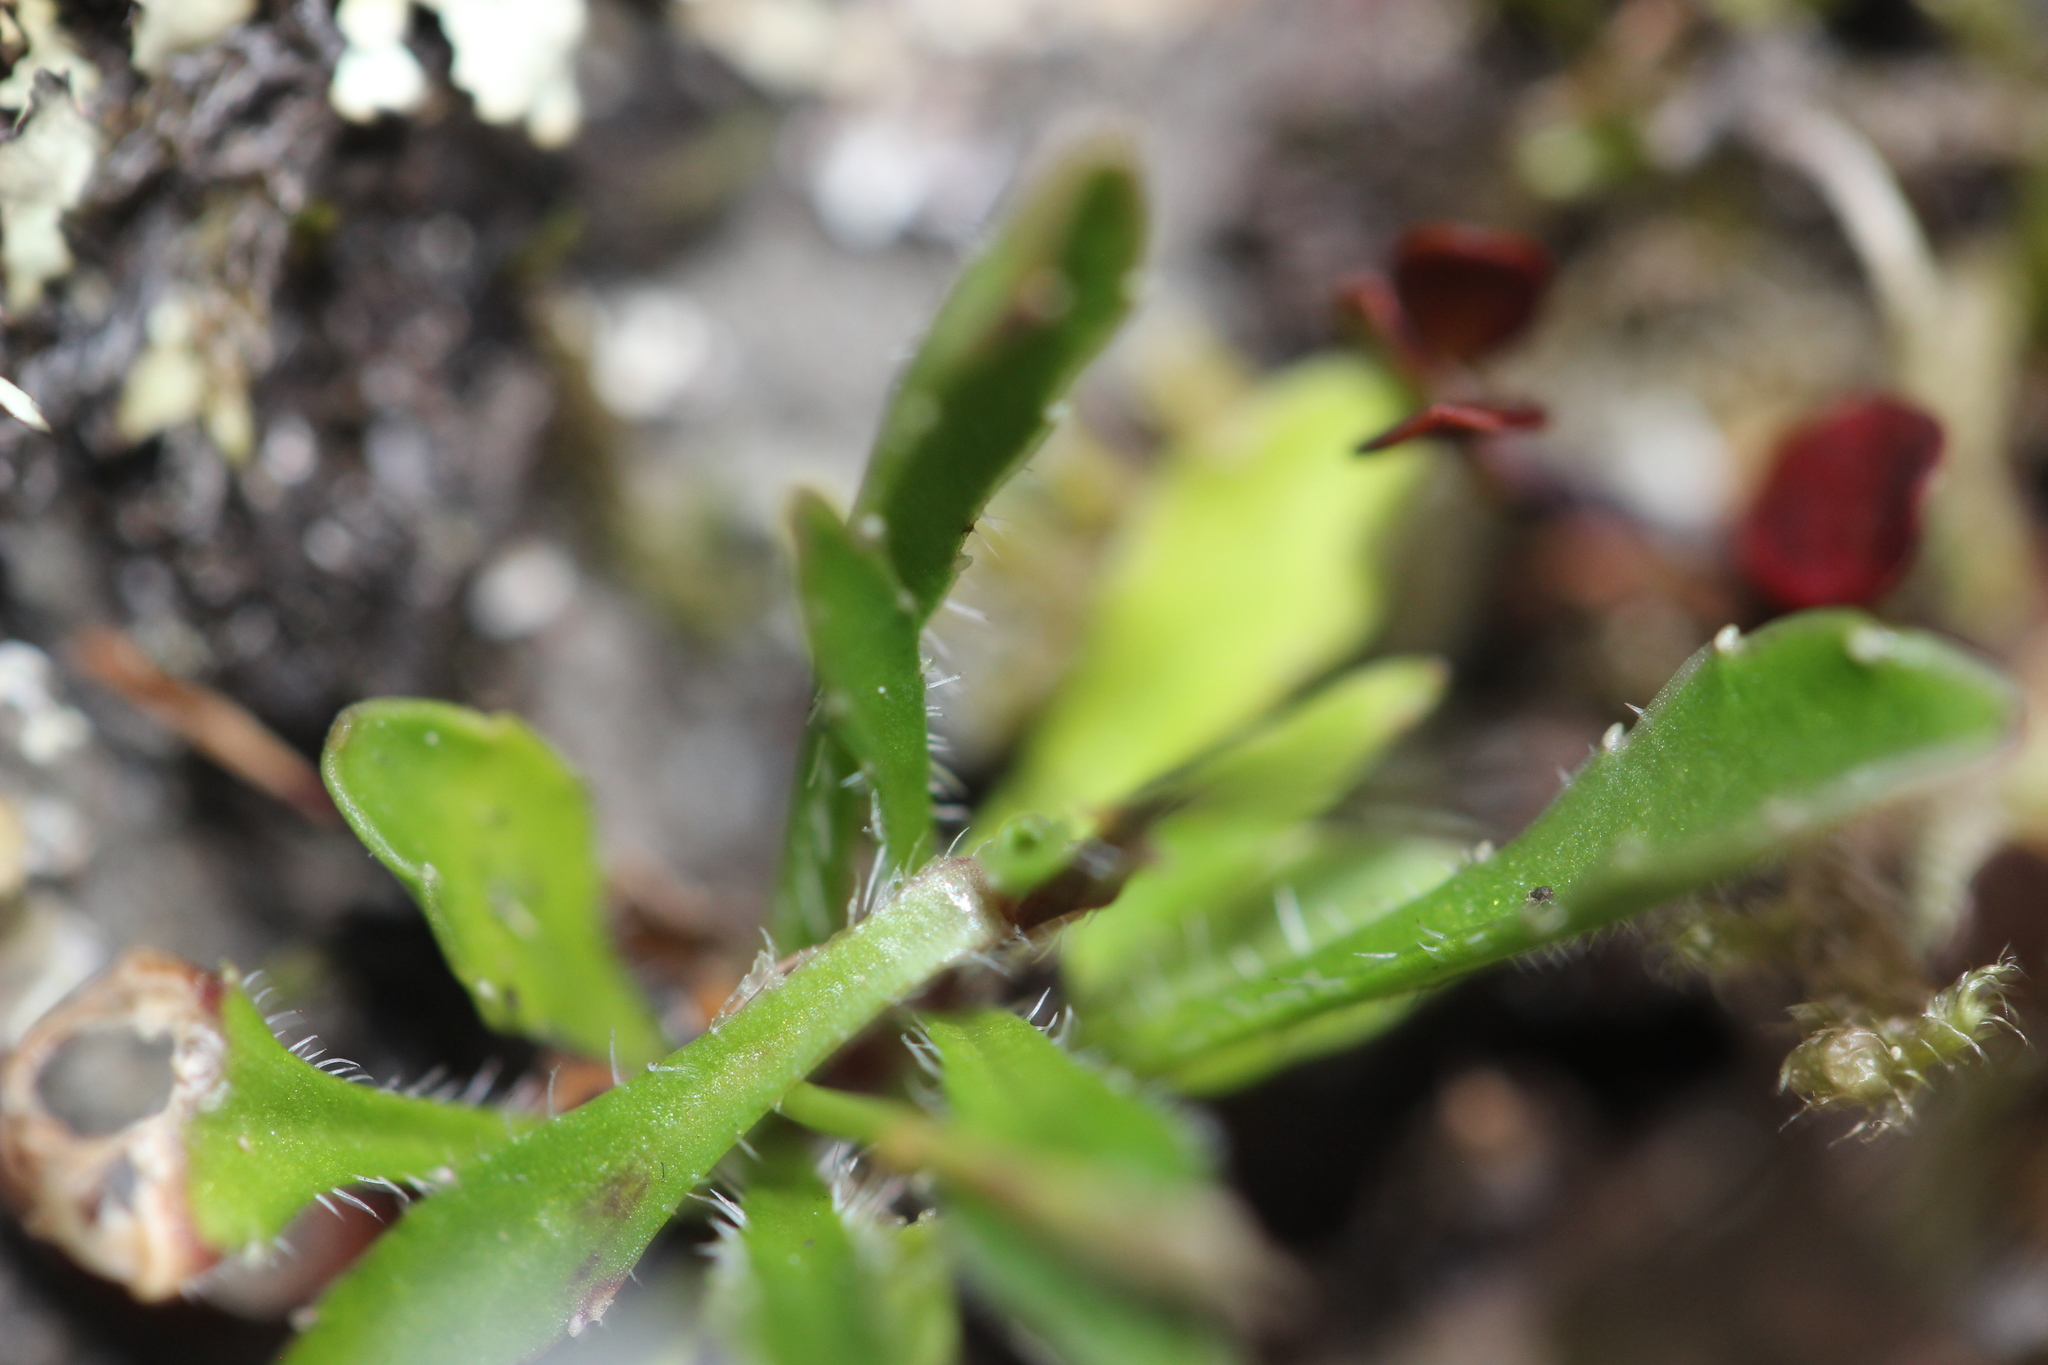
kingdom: Plantae
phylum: Tracheophyta
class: Magnoliopsida
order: Asterales
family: Campanulaceae
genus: Wahlenbergia
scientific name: Wahlenbergia albomarginata
